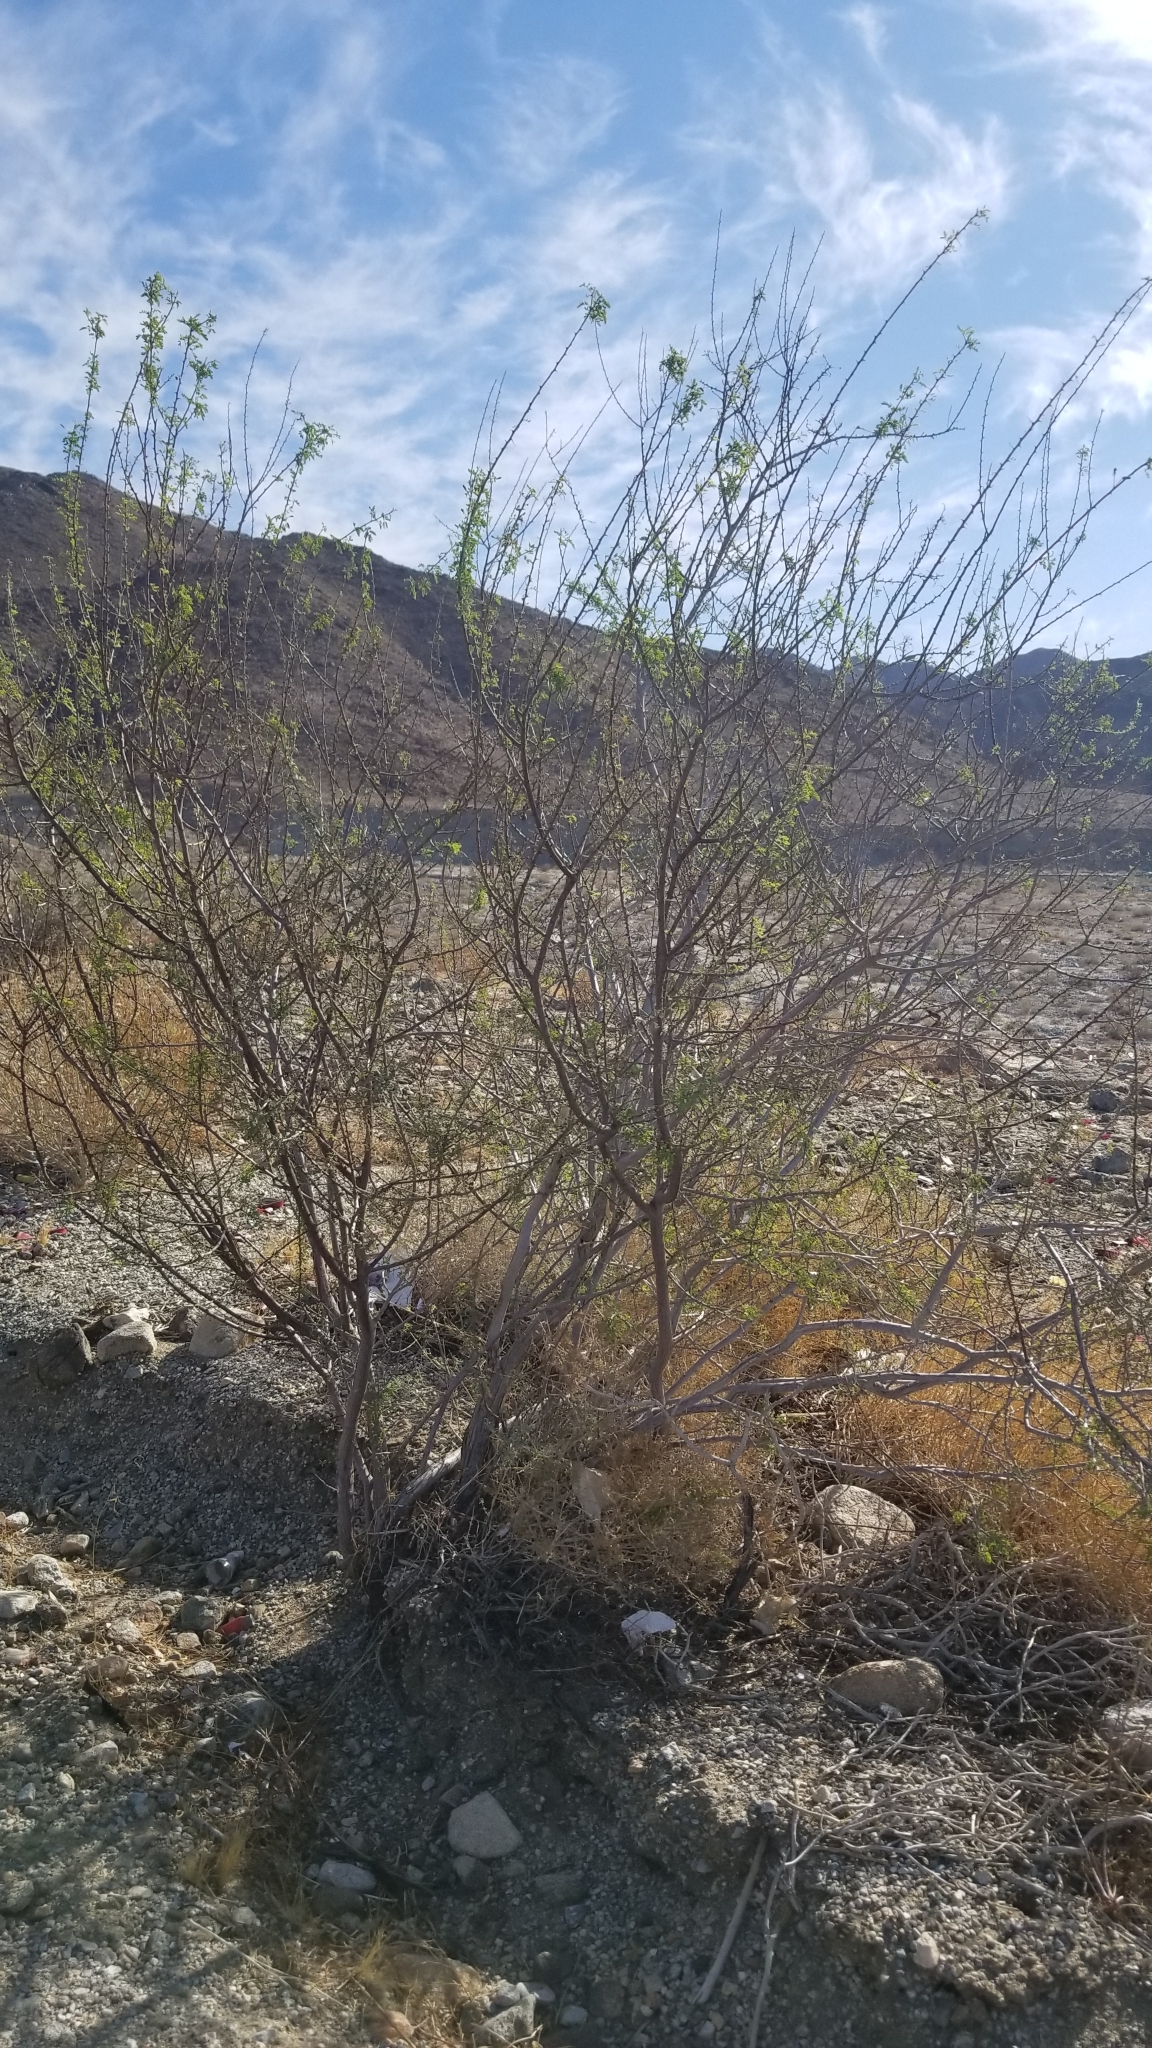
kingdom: Plantae
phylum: Tracheophyta
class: Magnoliopsida
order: Fabales
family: Fabaceae
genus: Senegalia
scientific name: Senegalia greggii
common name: Texas-mimosa
